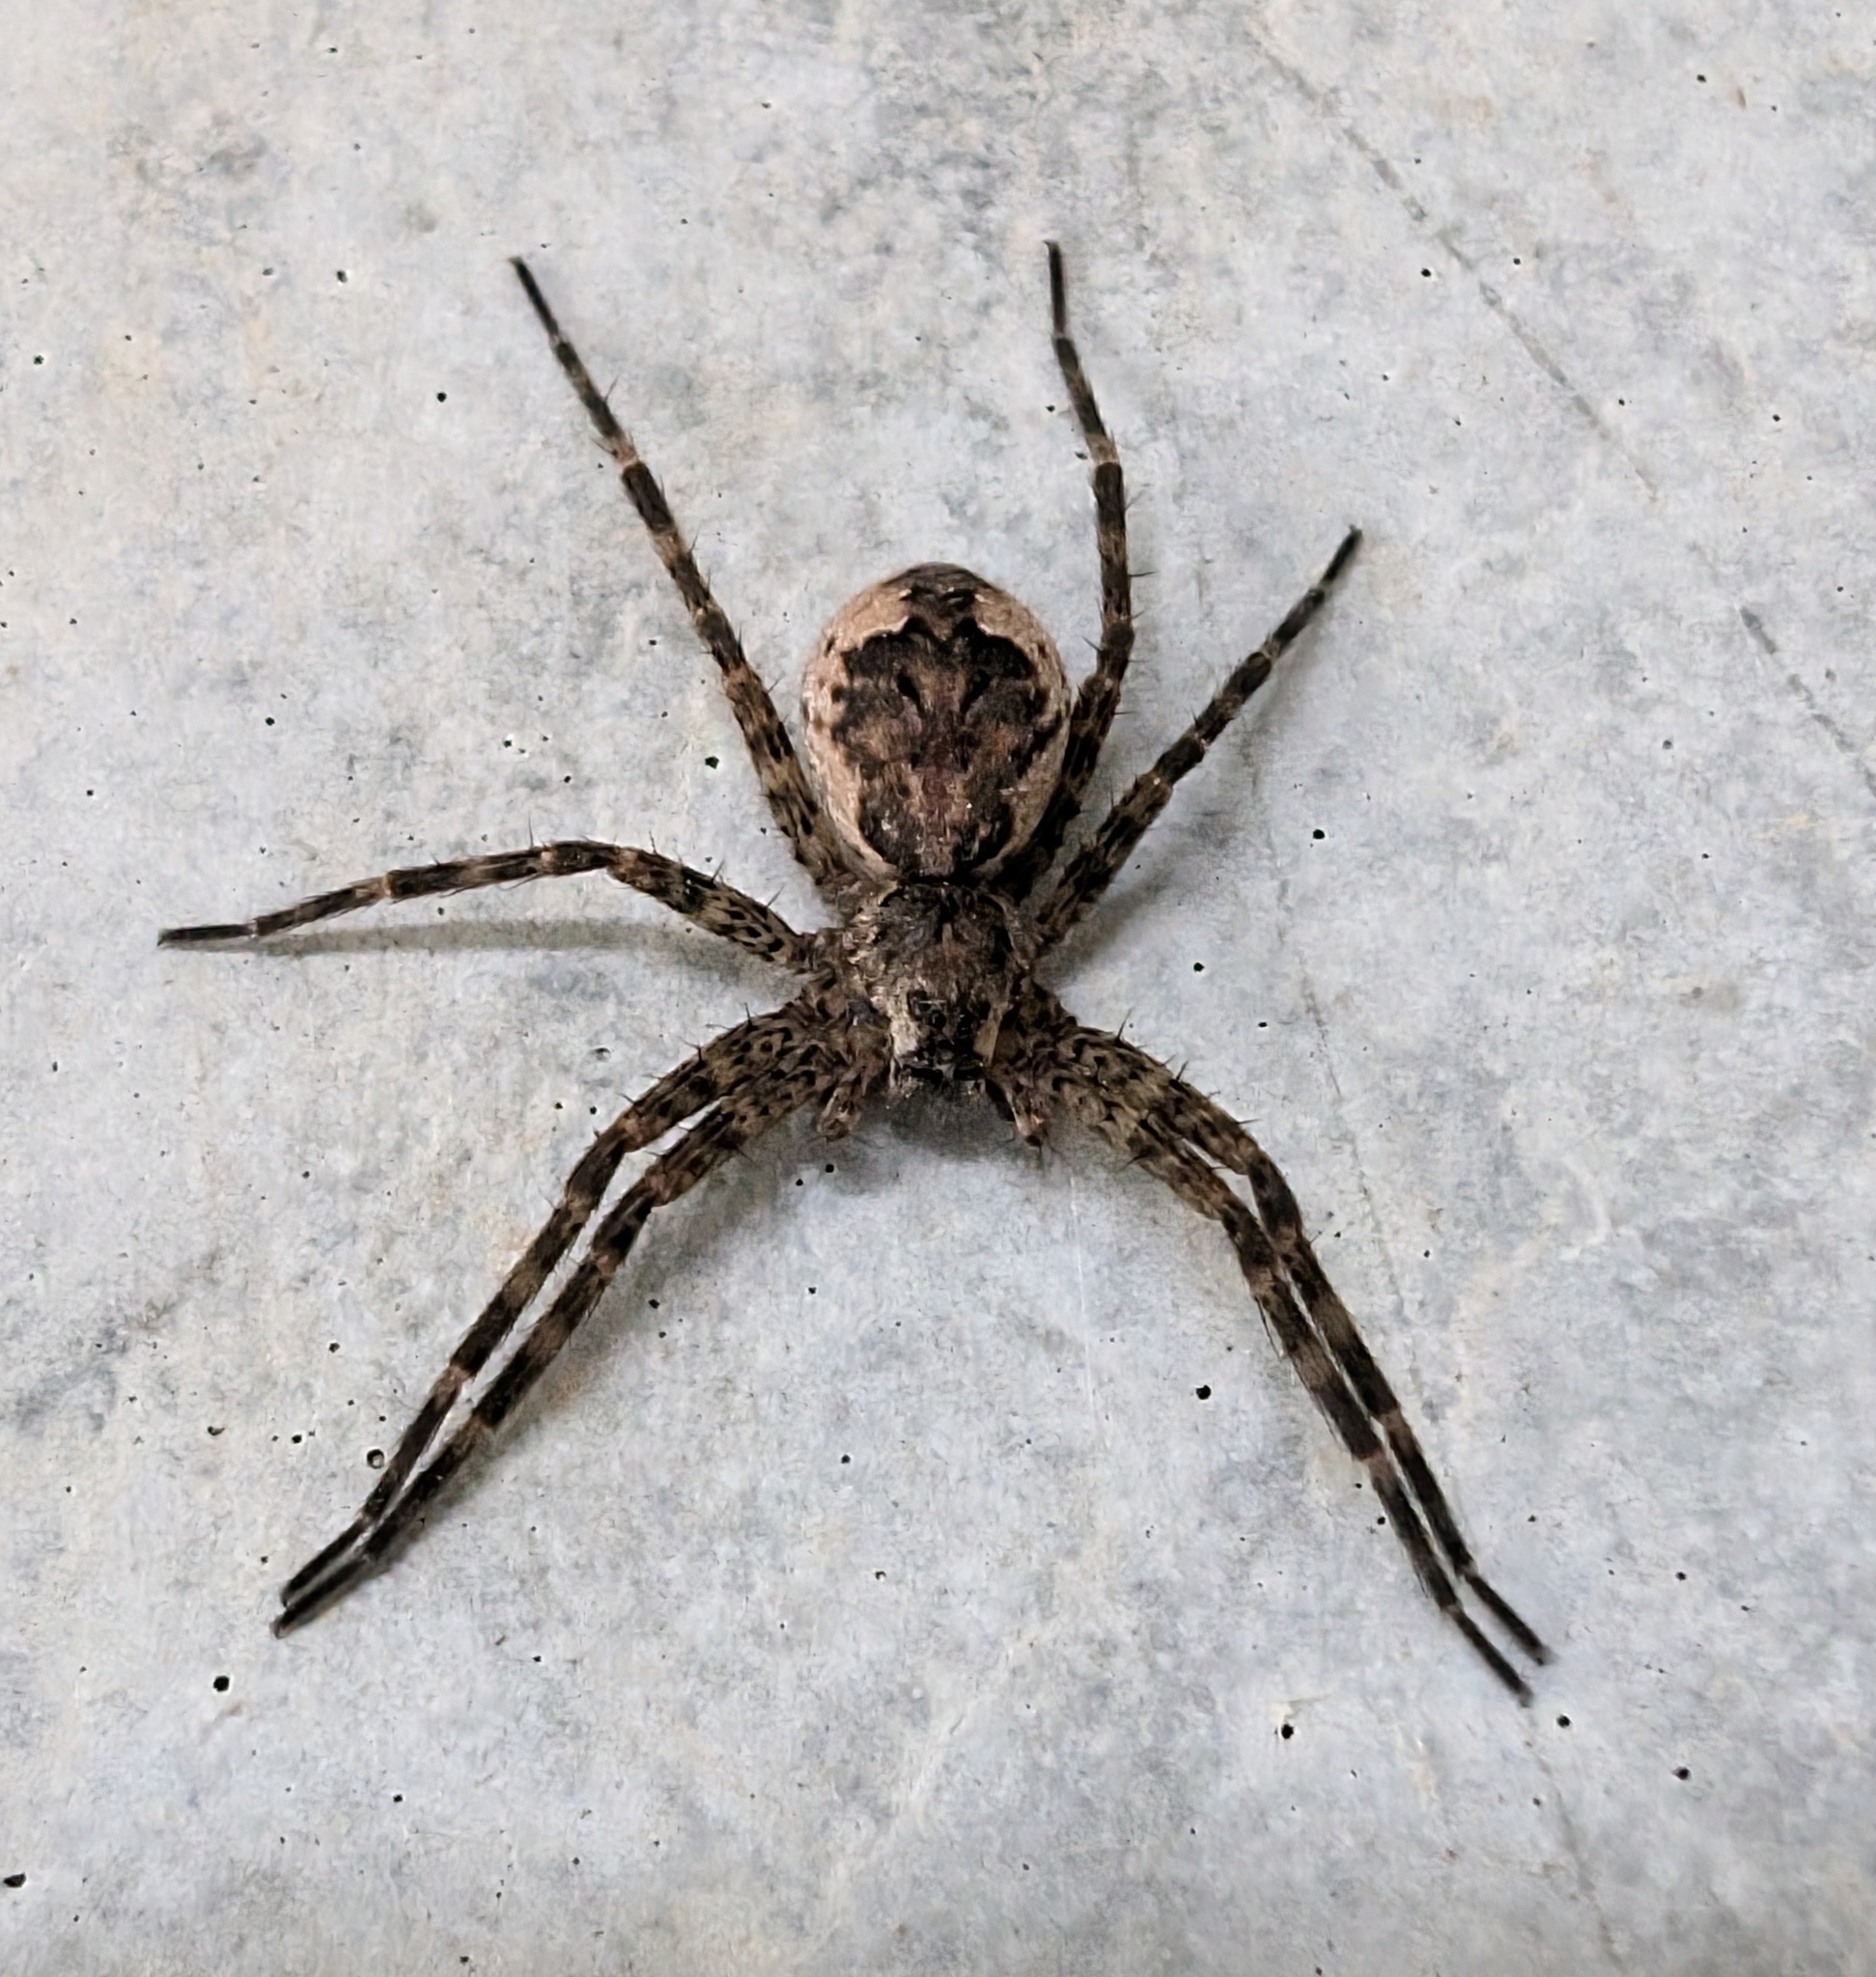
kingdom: Animalia
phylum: Arthropoda
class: Arachnida
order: Araneae
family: Pisauridae
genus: Dolomedes
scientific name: Dolomedes tenebrosus
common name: Dark fishing spider
